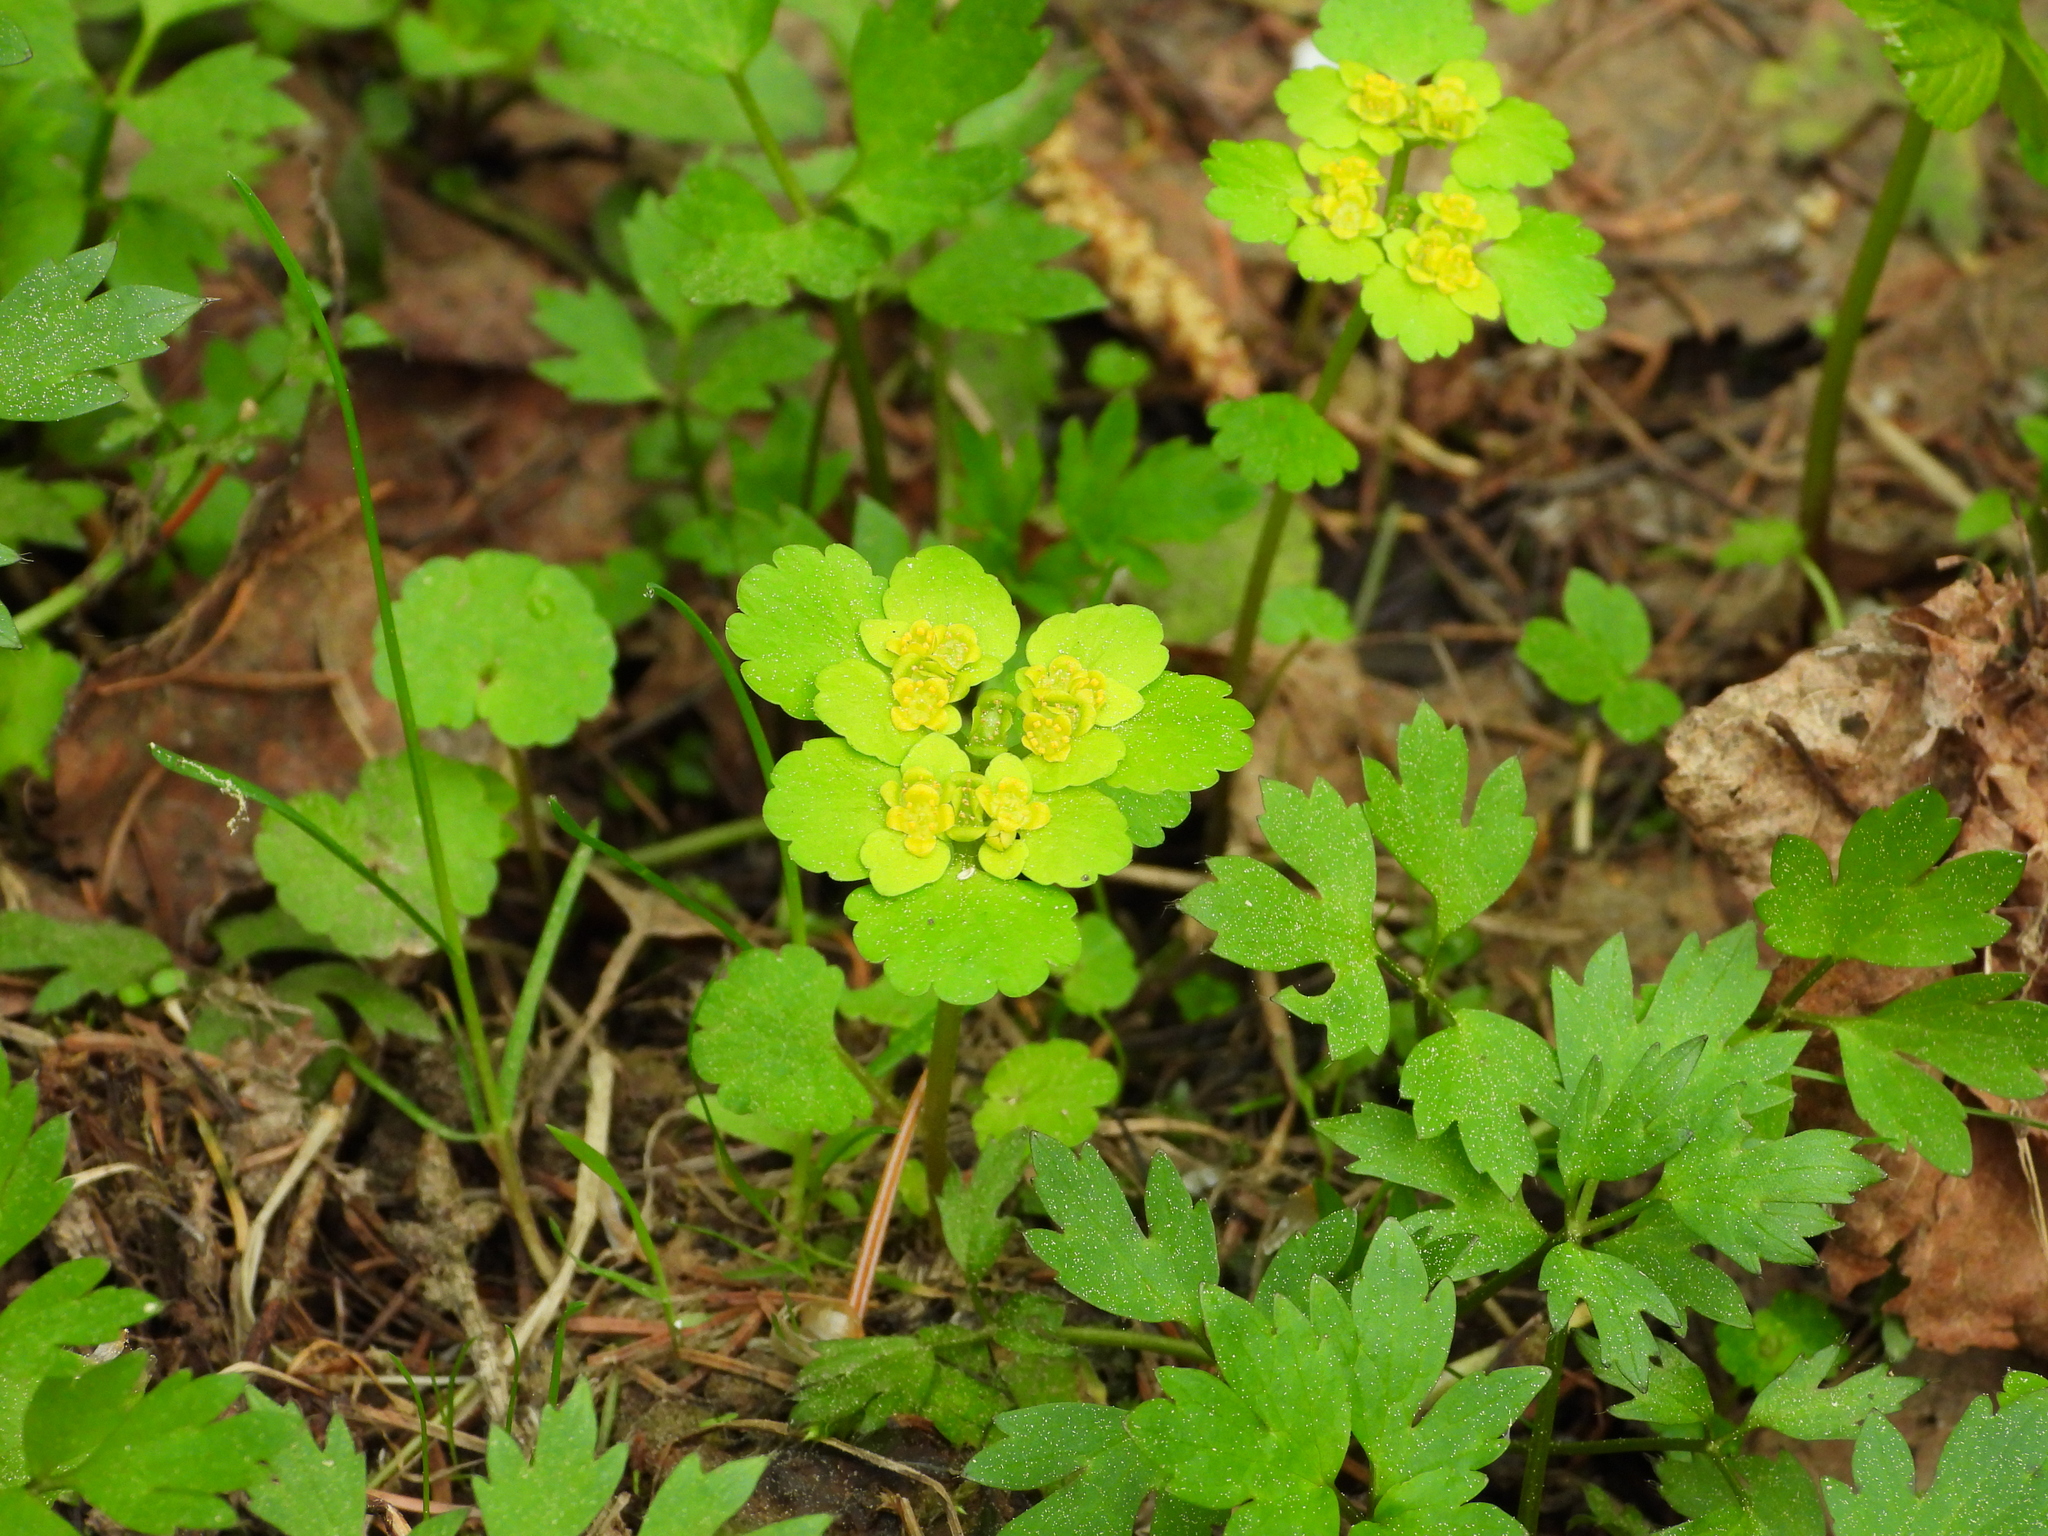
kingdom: Plantae
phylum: Tracheophyta
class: Magnoliopsida
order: Saxifragales
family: Saxifragaceae
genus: Chrysosplenium
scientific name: Chrysosplenium alternifolium
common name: Alternate-leaved golden-saxifrage
